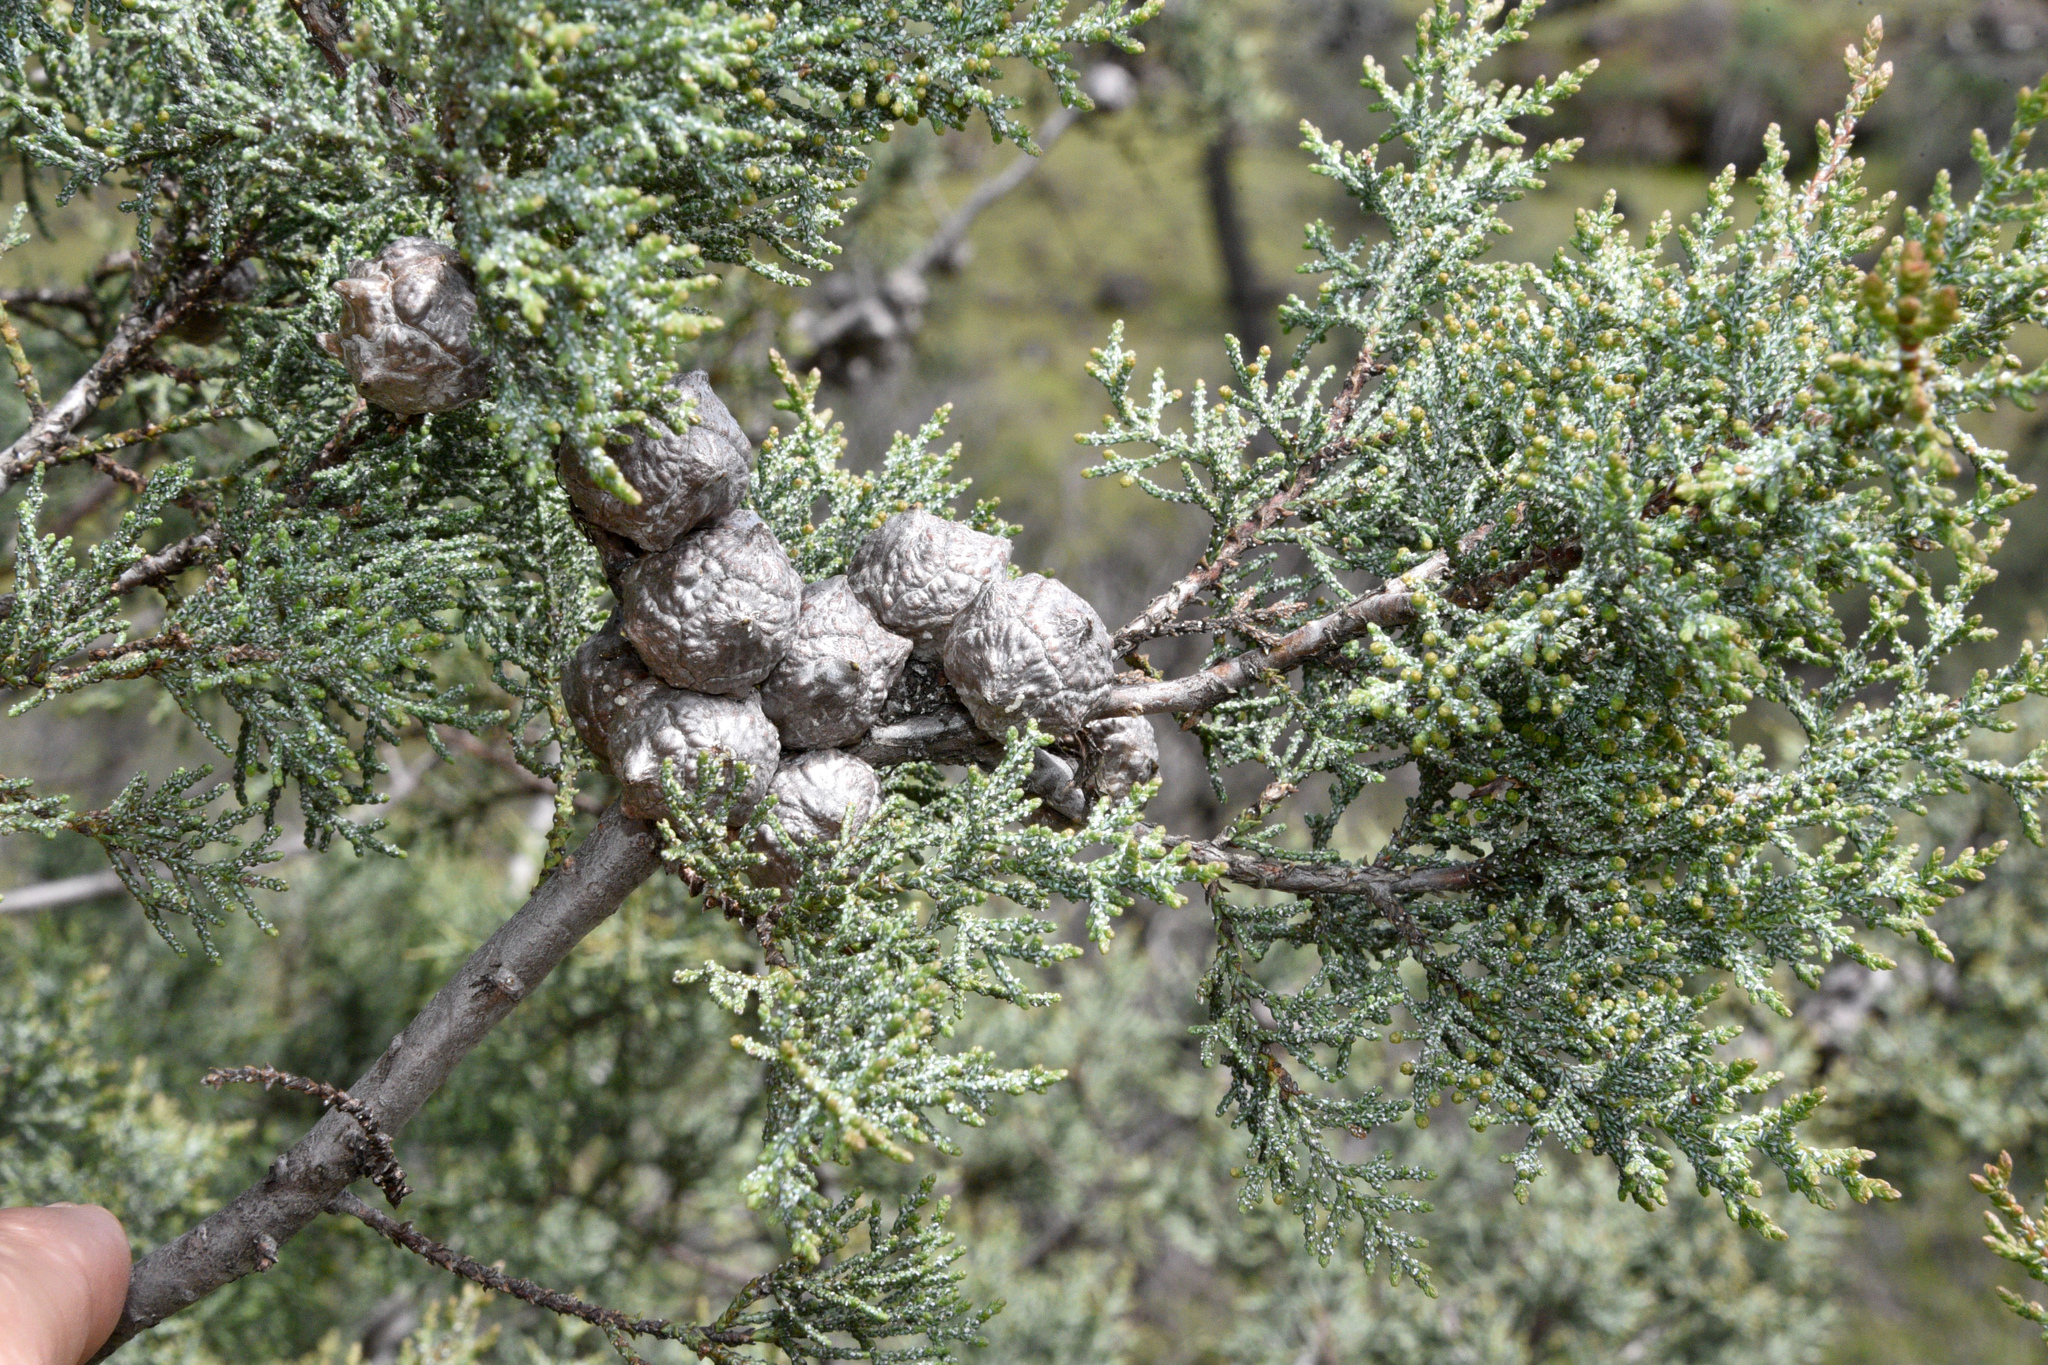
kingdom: Plantae
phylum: Tracheophyta
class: Pinopsida
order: Pinales
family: Cupressaceae
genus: Cupressus
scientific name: Cupressus macrocarpa
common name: Monterey cypress
